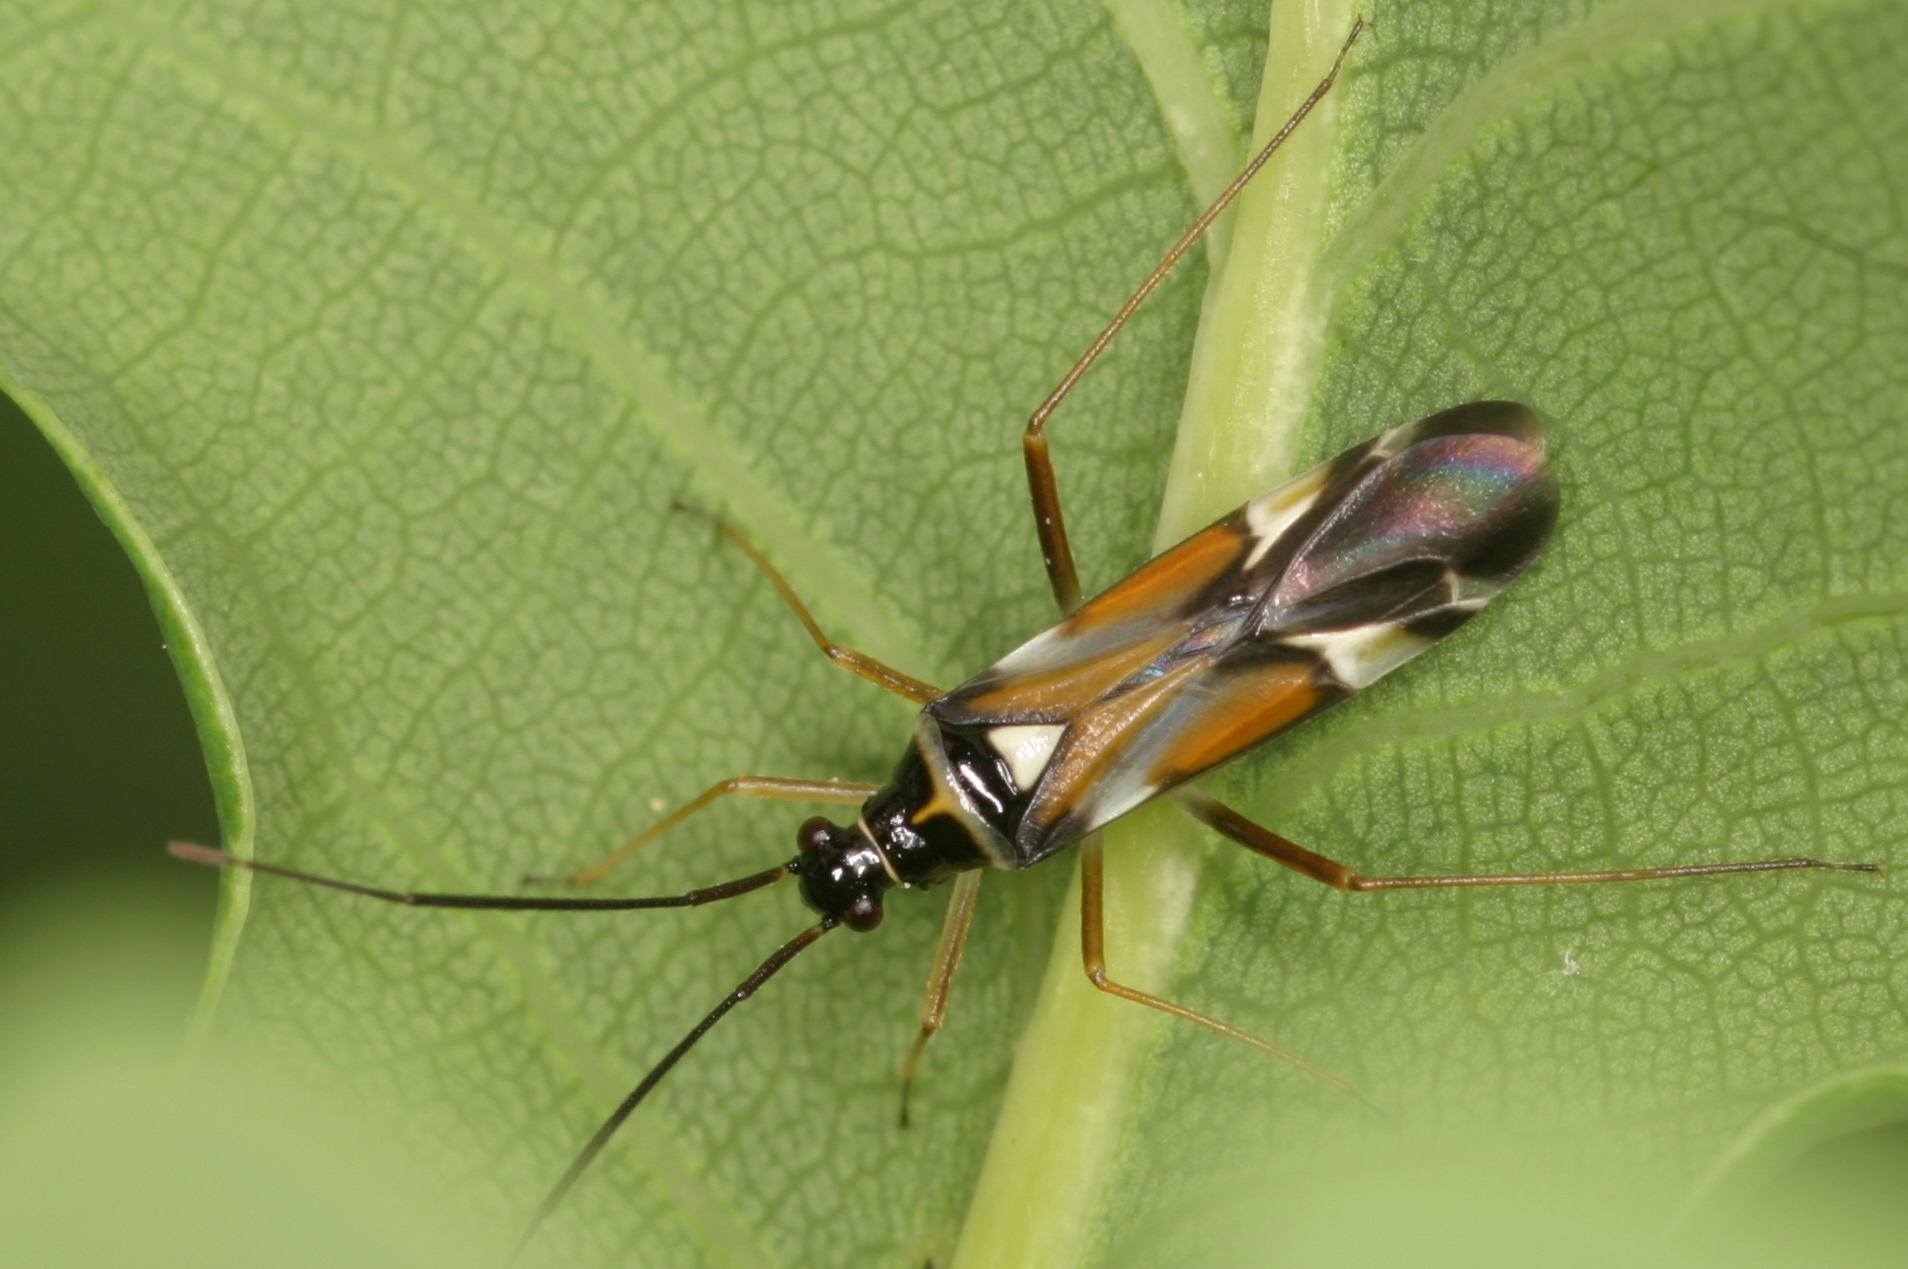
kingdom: Animalia
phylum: Arthropoda
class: Insecta
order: Hemiptera
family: Miridae
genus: Cyllecoris
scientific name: Cyllecoris histrionius
